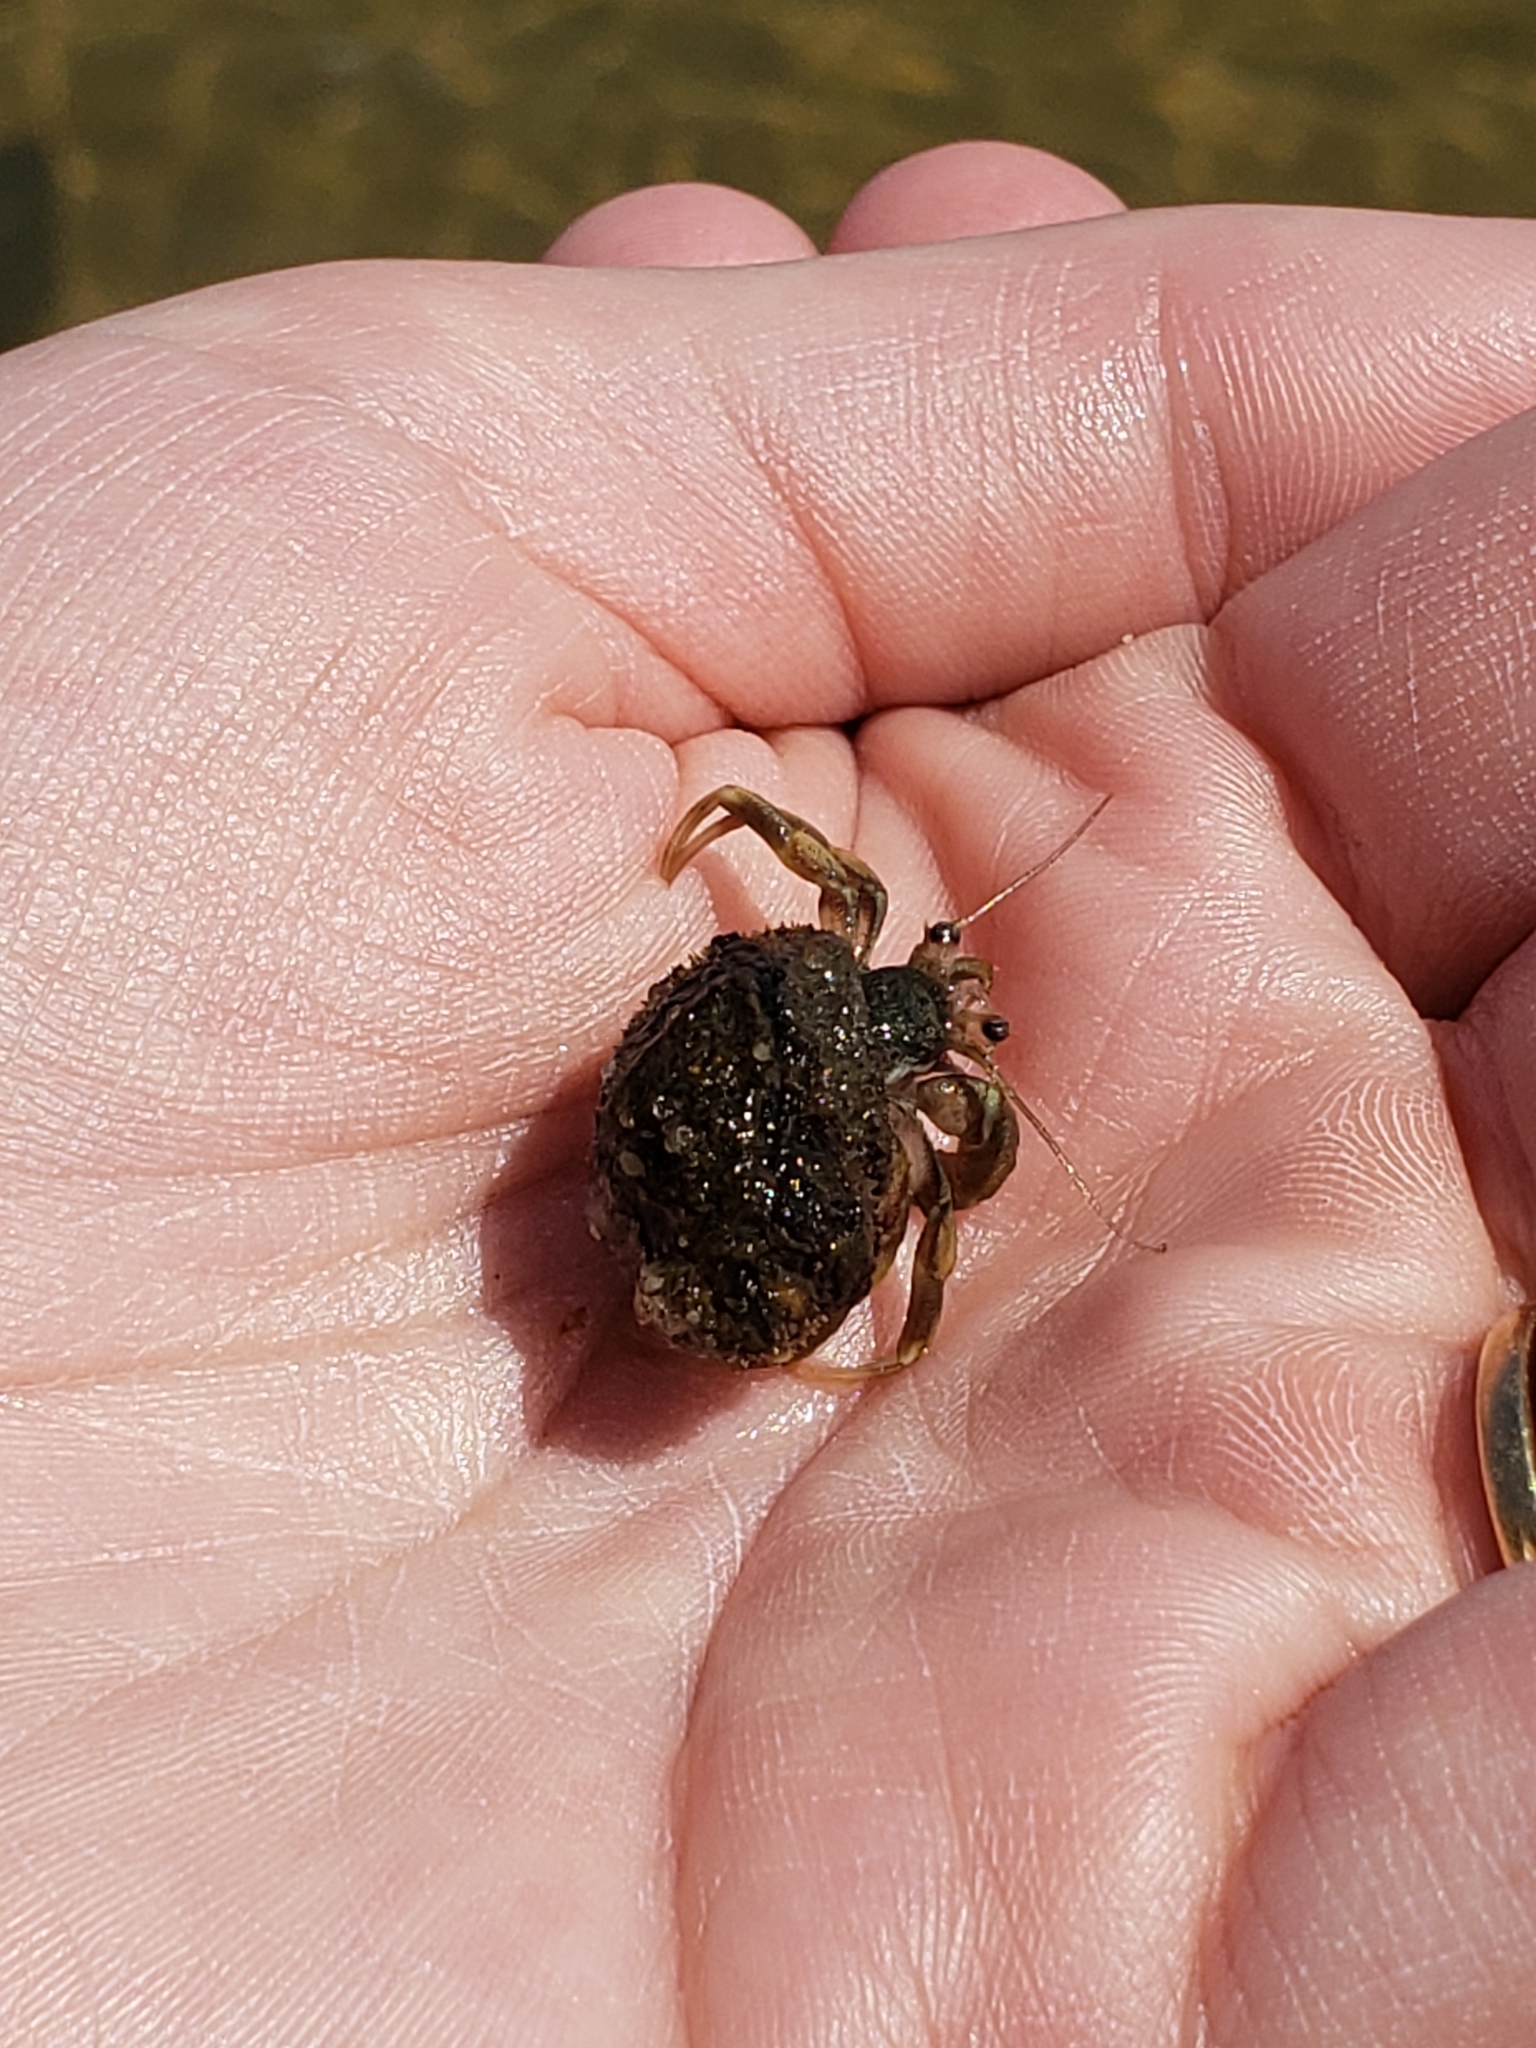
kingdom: Animalia
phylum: Arthropoda
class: Malacostraca
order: Decapoda
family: Paguridae
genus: Pagurus
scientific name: Pagurus longicarpus
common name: Long-armed hermit crab
